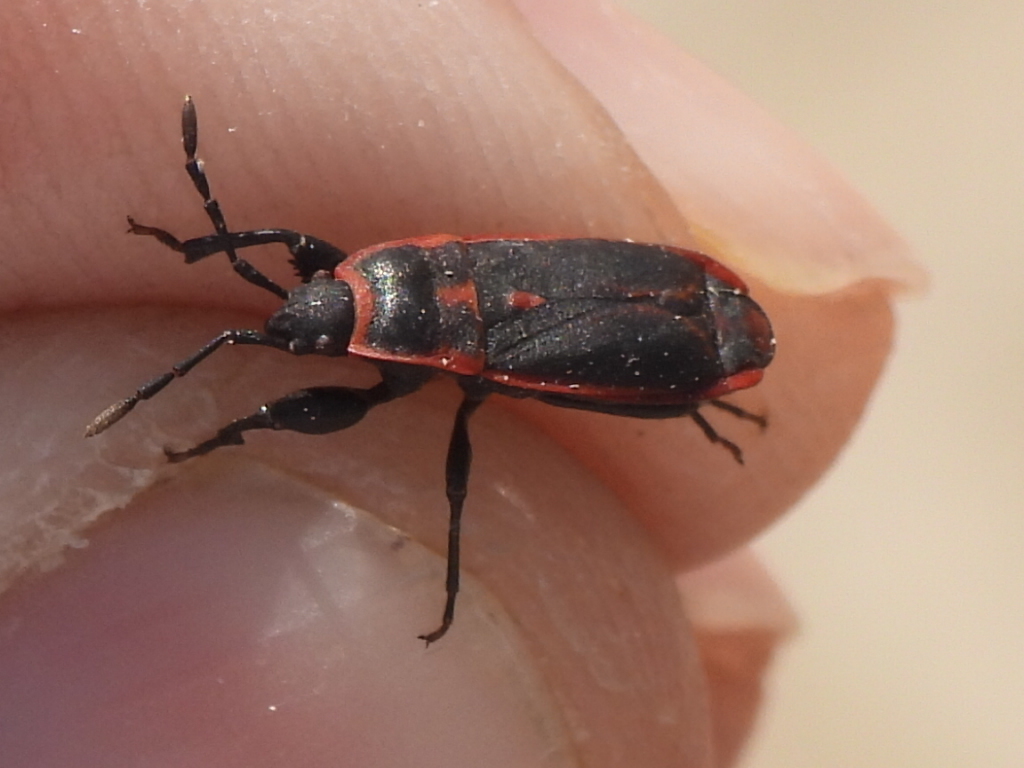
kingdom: Animalia
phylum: Arthropoda
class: Insecta
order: Hemiptera
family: Pyrrhocoridae
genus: Scantius
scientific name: Scantius forsteri
